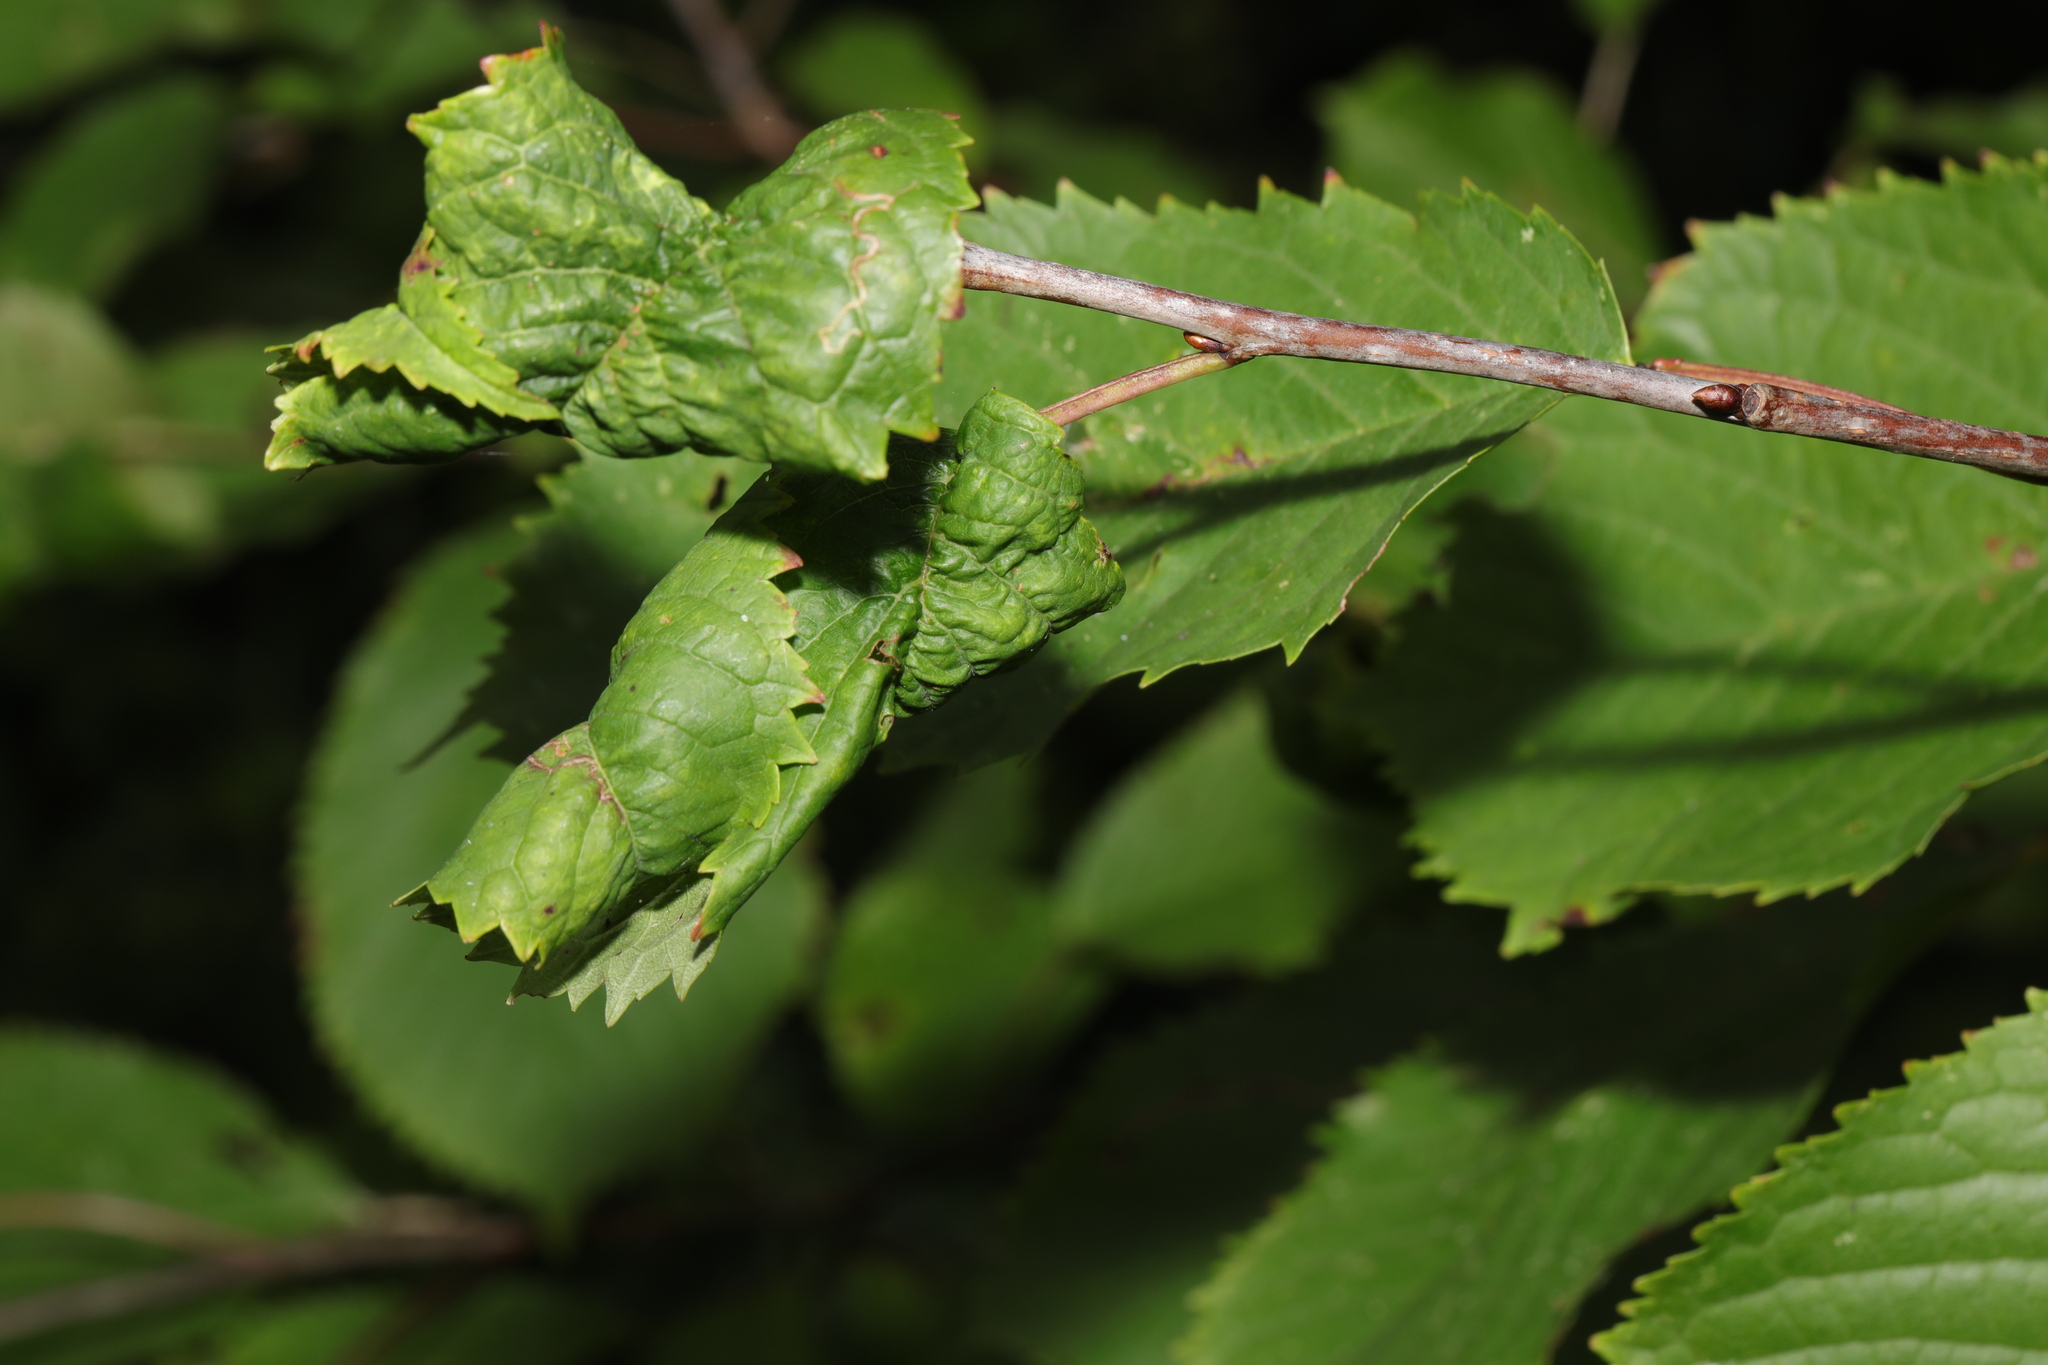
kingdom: Animalia
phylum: Arthropoda
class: Insecta
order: Hemiptera
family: Aphididae
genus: Myzus
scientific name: Myzus cerasi
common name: Black cherry aphid
